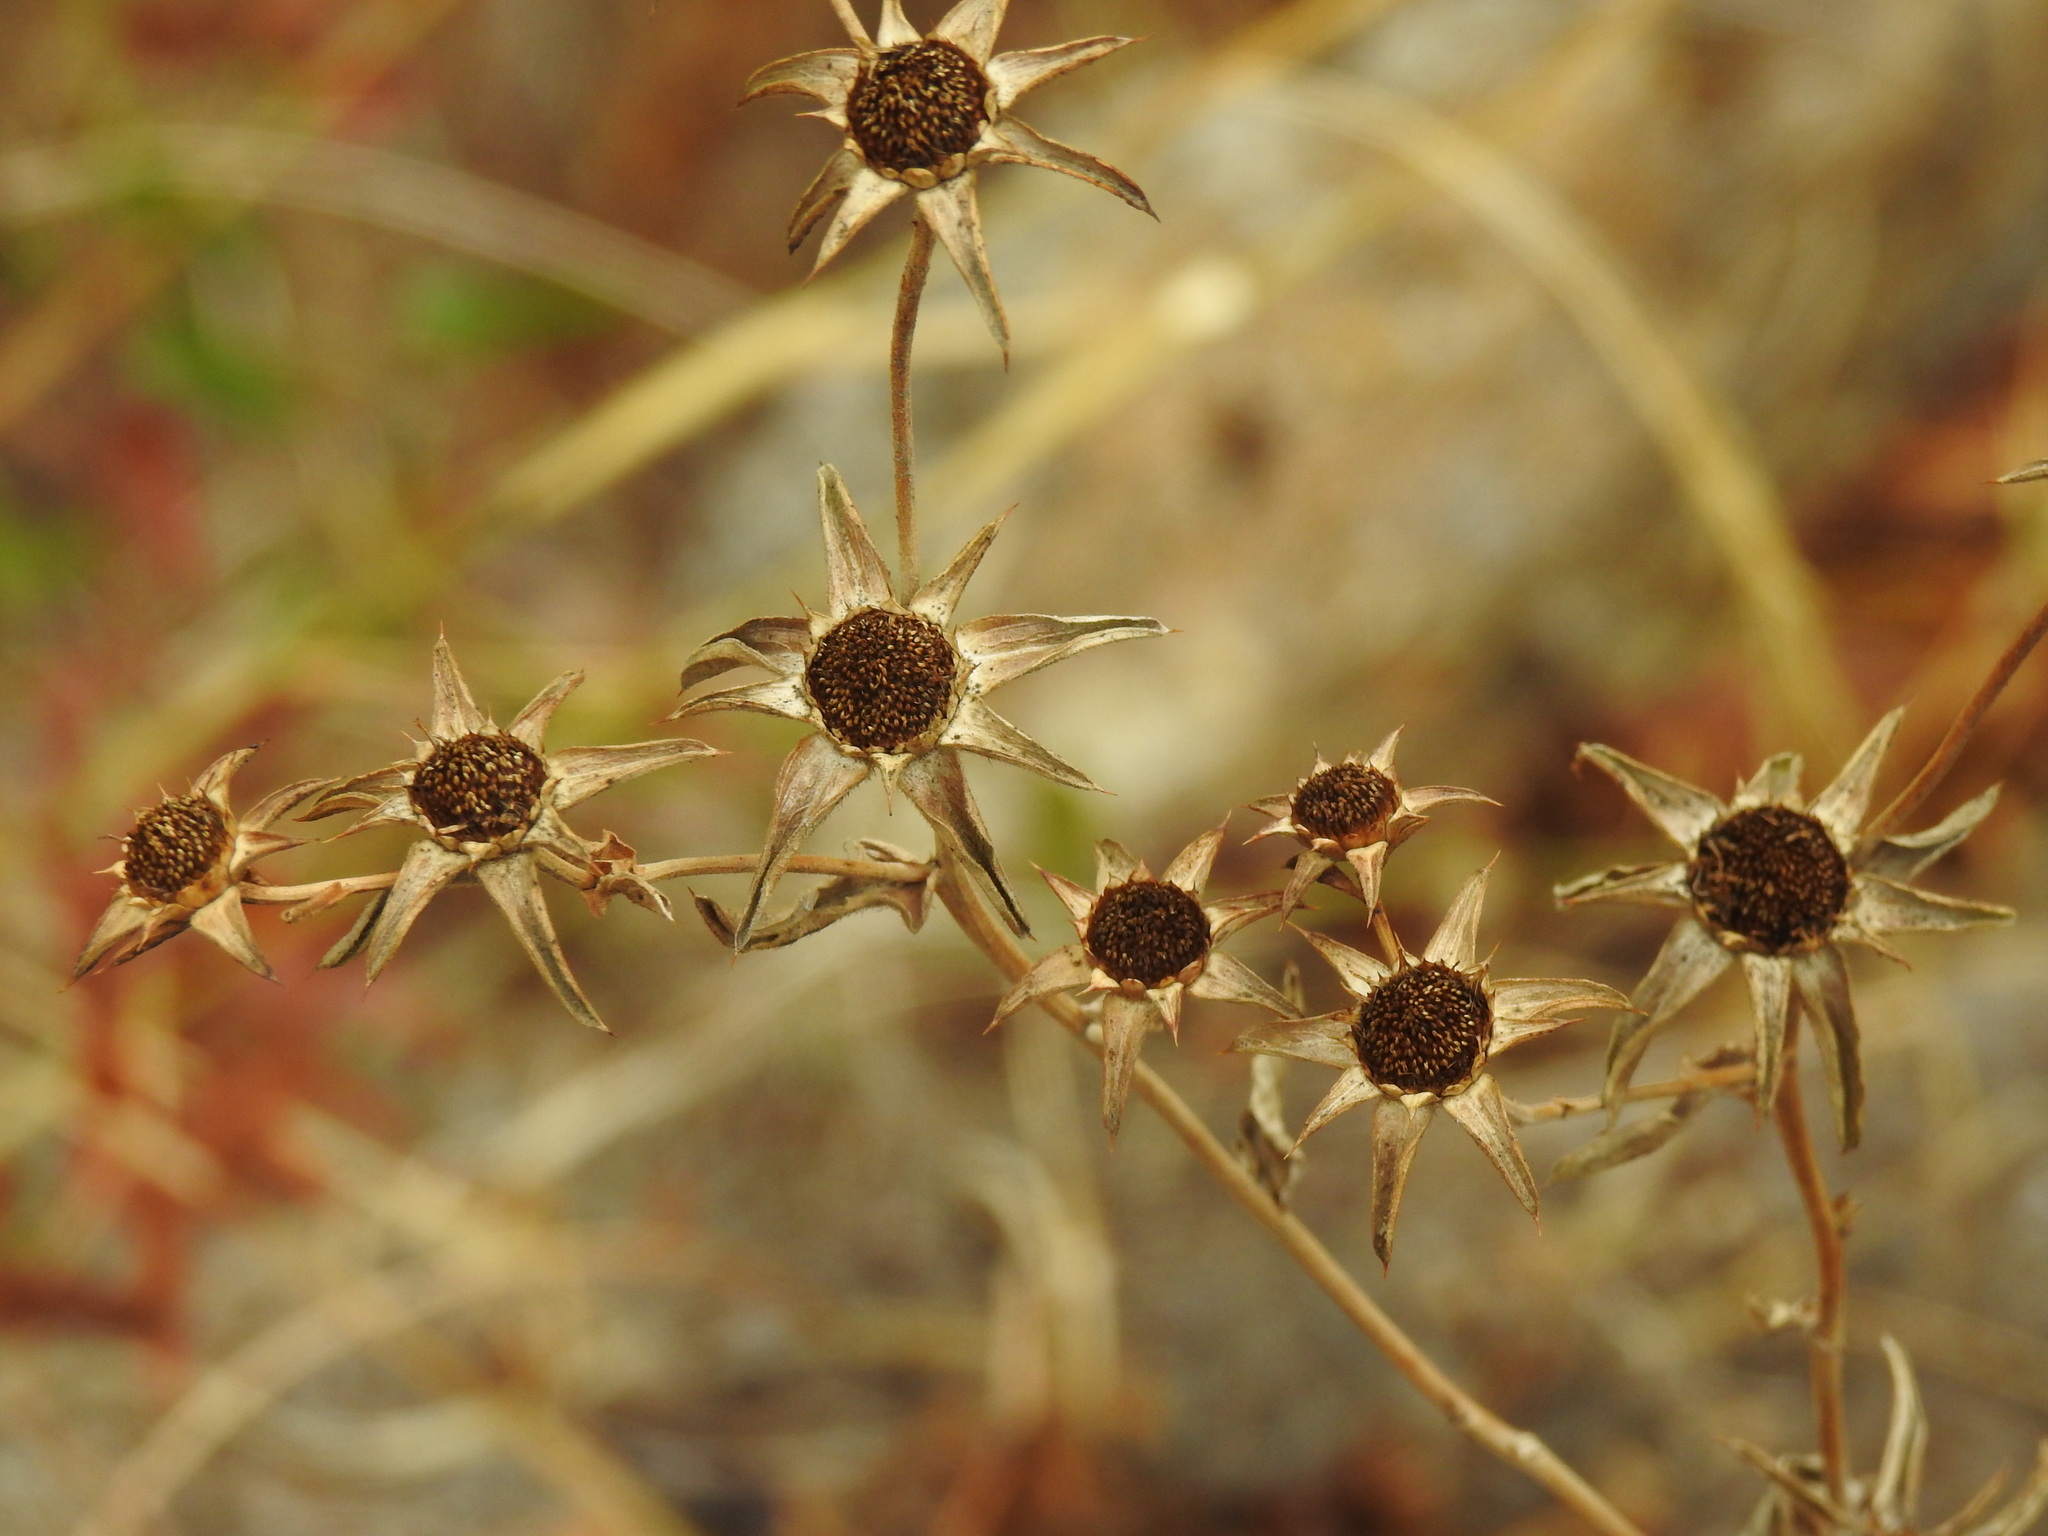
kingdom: Plantae
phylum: Tracheophyta
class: Magnoliopsida
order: Asterales
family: Asteraceae
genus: Pallenis
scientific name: Pallenis spinosa
